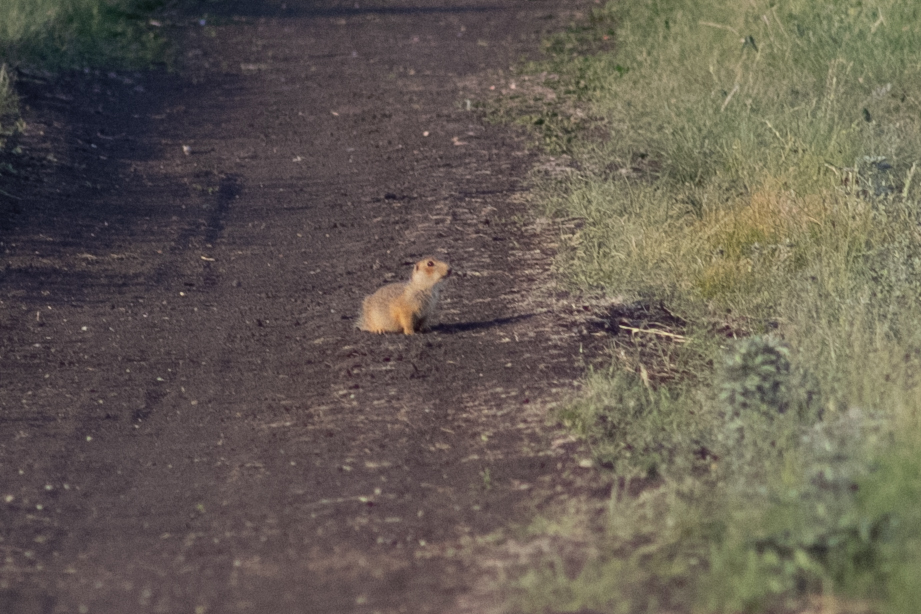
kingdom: Animalia
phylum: Chordata
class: Mammalia
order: Rodentia
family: Sciuridae
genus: Spermophilus
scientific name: Spermophilus major
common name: Russet ground squirrel
